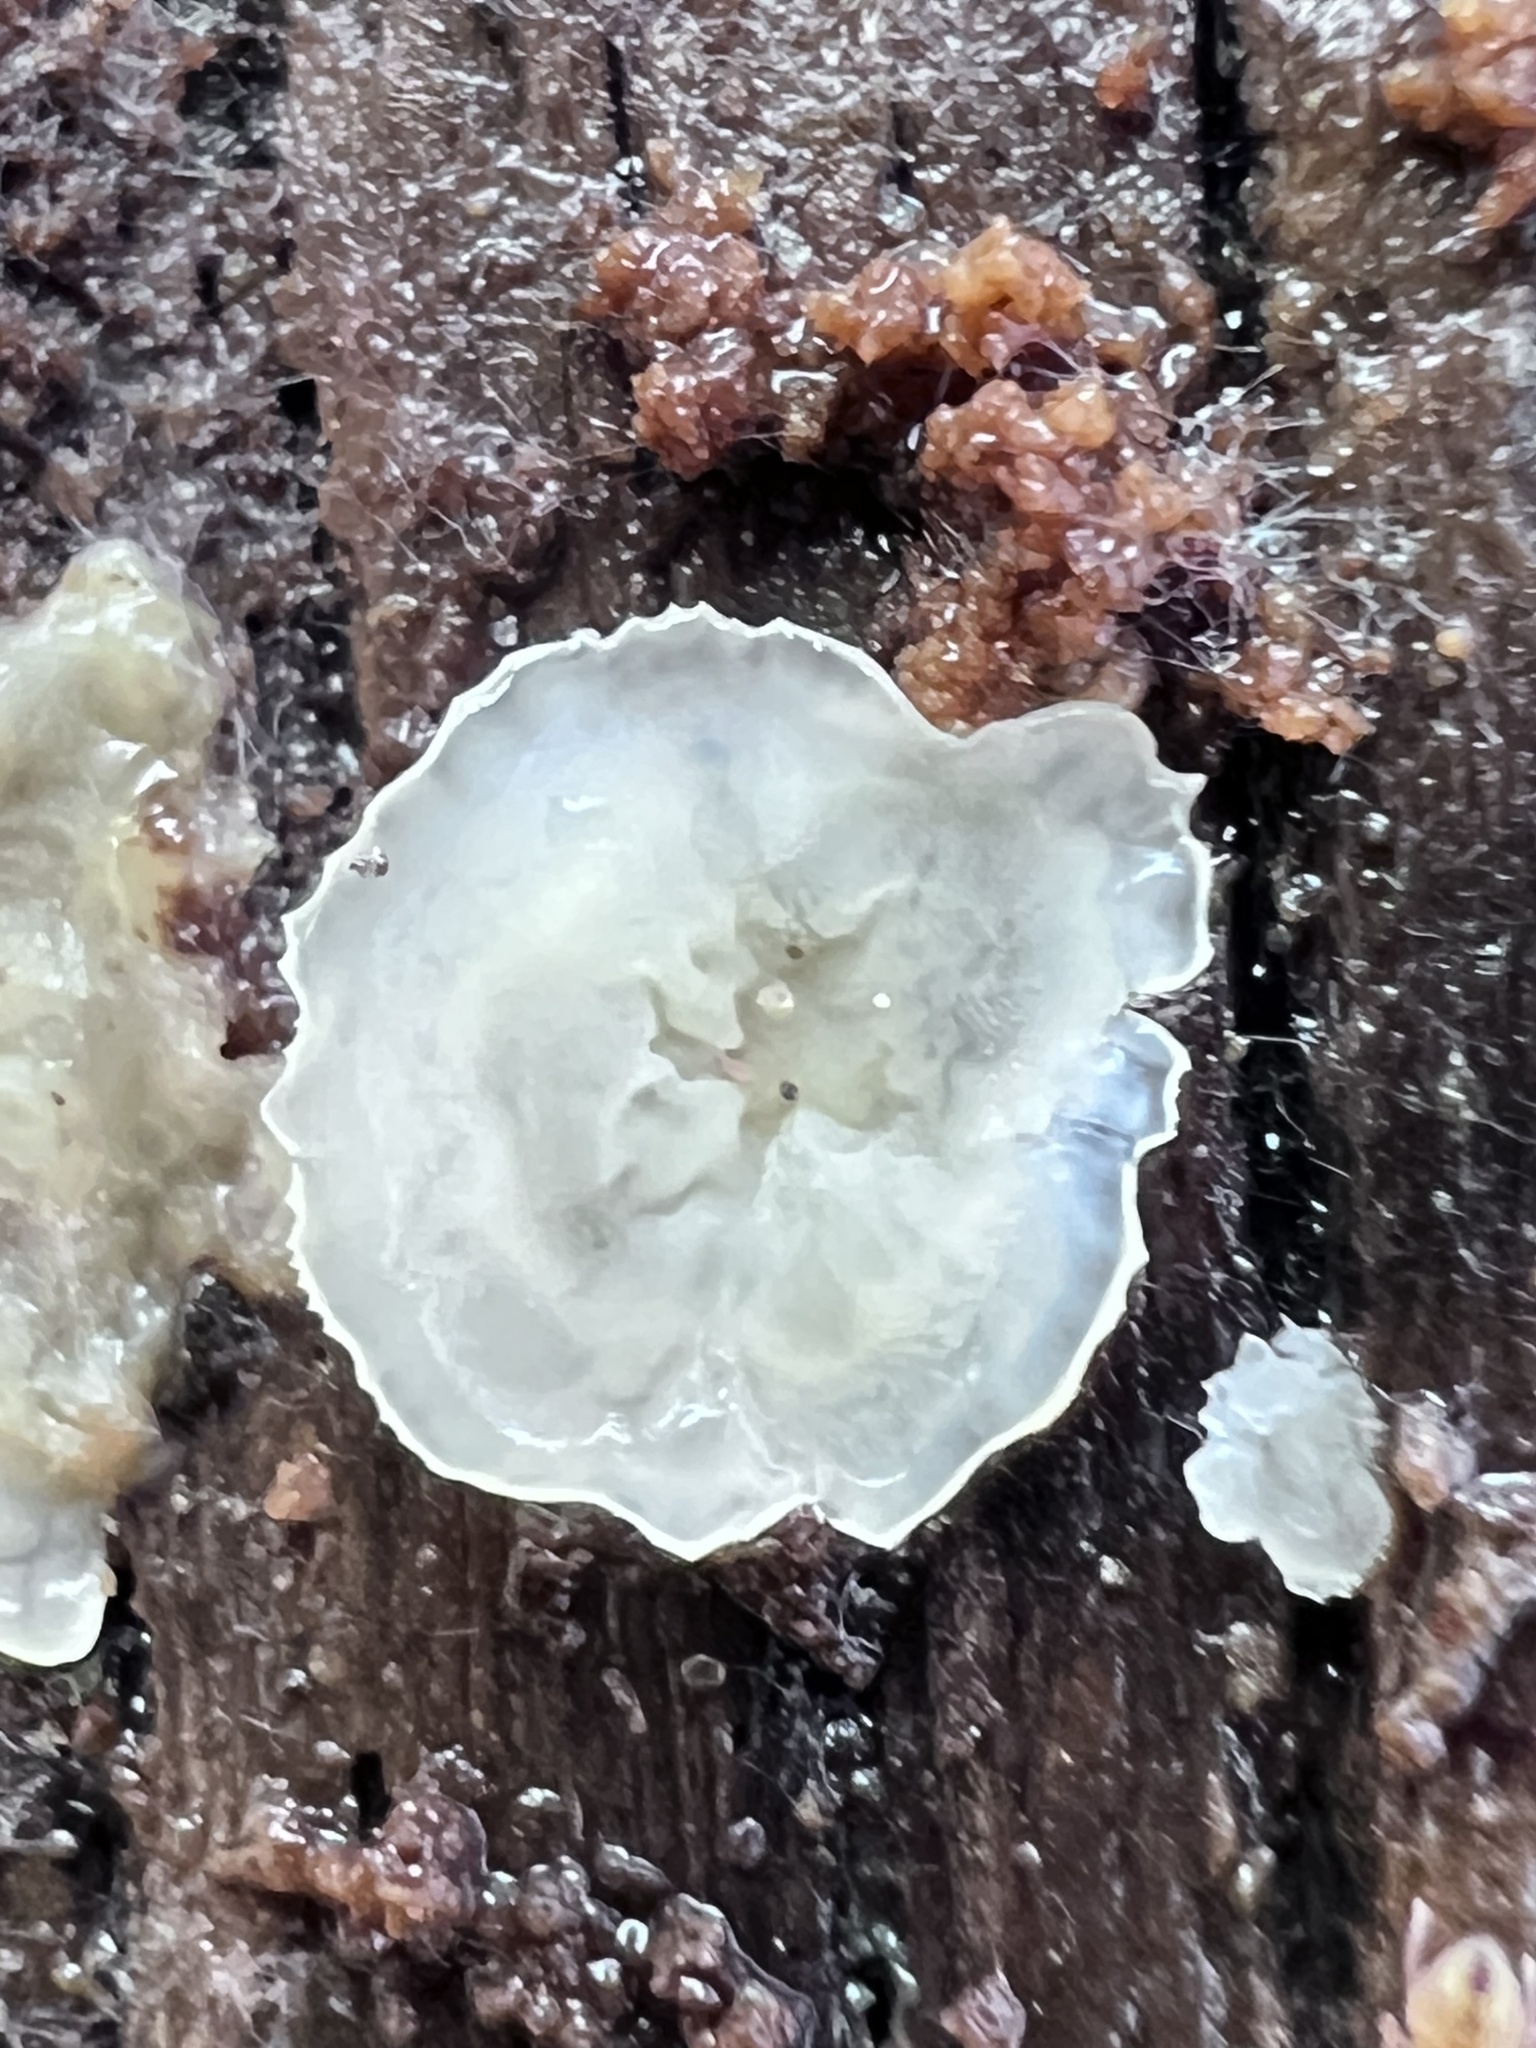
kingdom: Fungi
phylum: Basidiomycota
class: Agaricomycetes
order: Polyporales
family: Meruliaceae
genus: Phlebia
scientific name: Phlebia tremellosa
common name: Jelly rot
